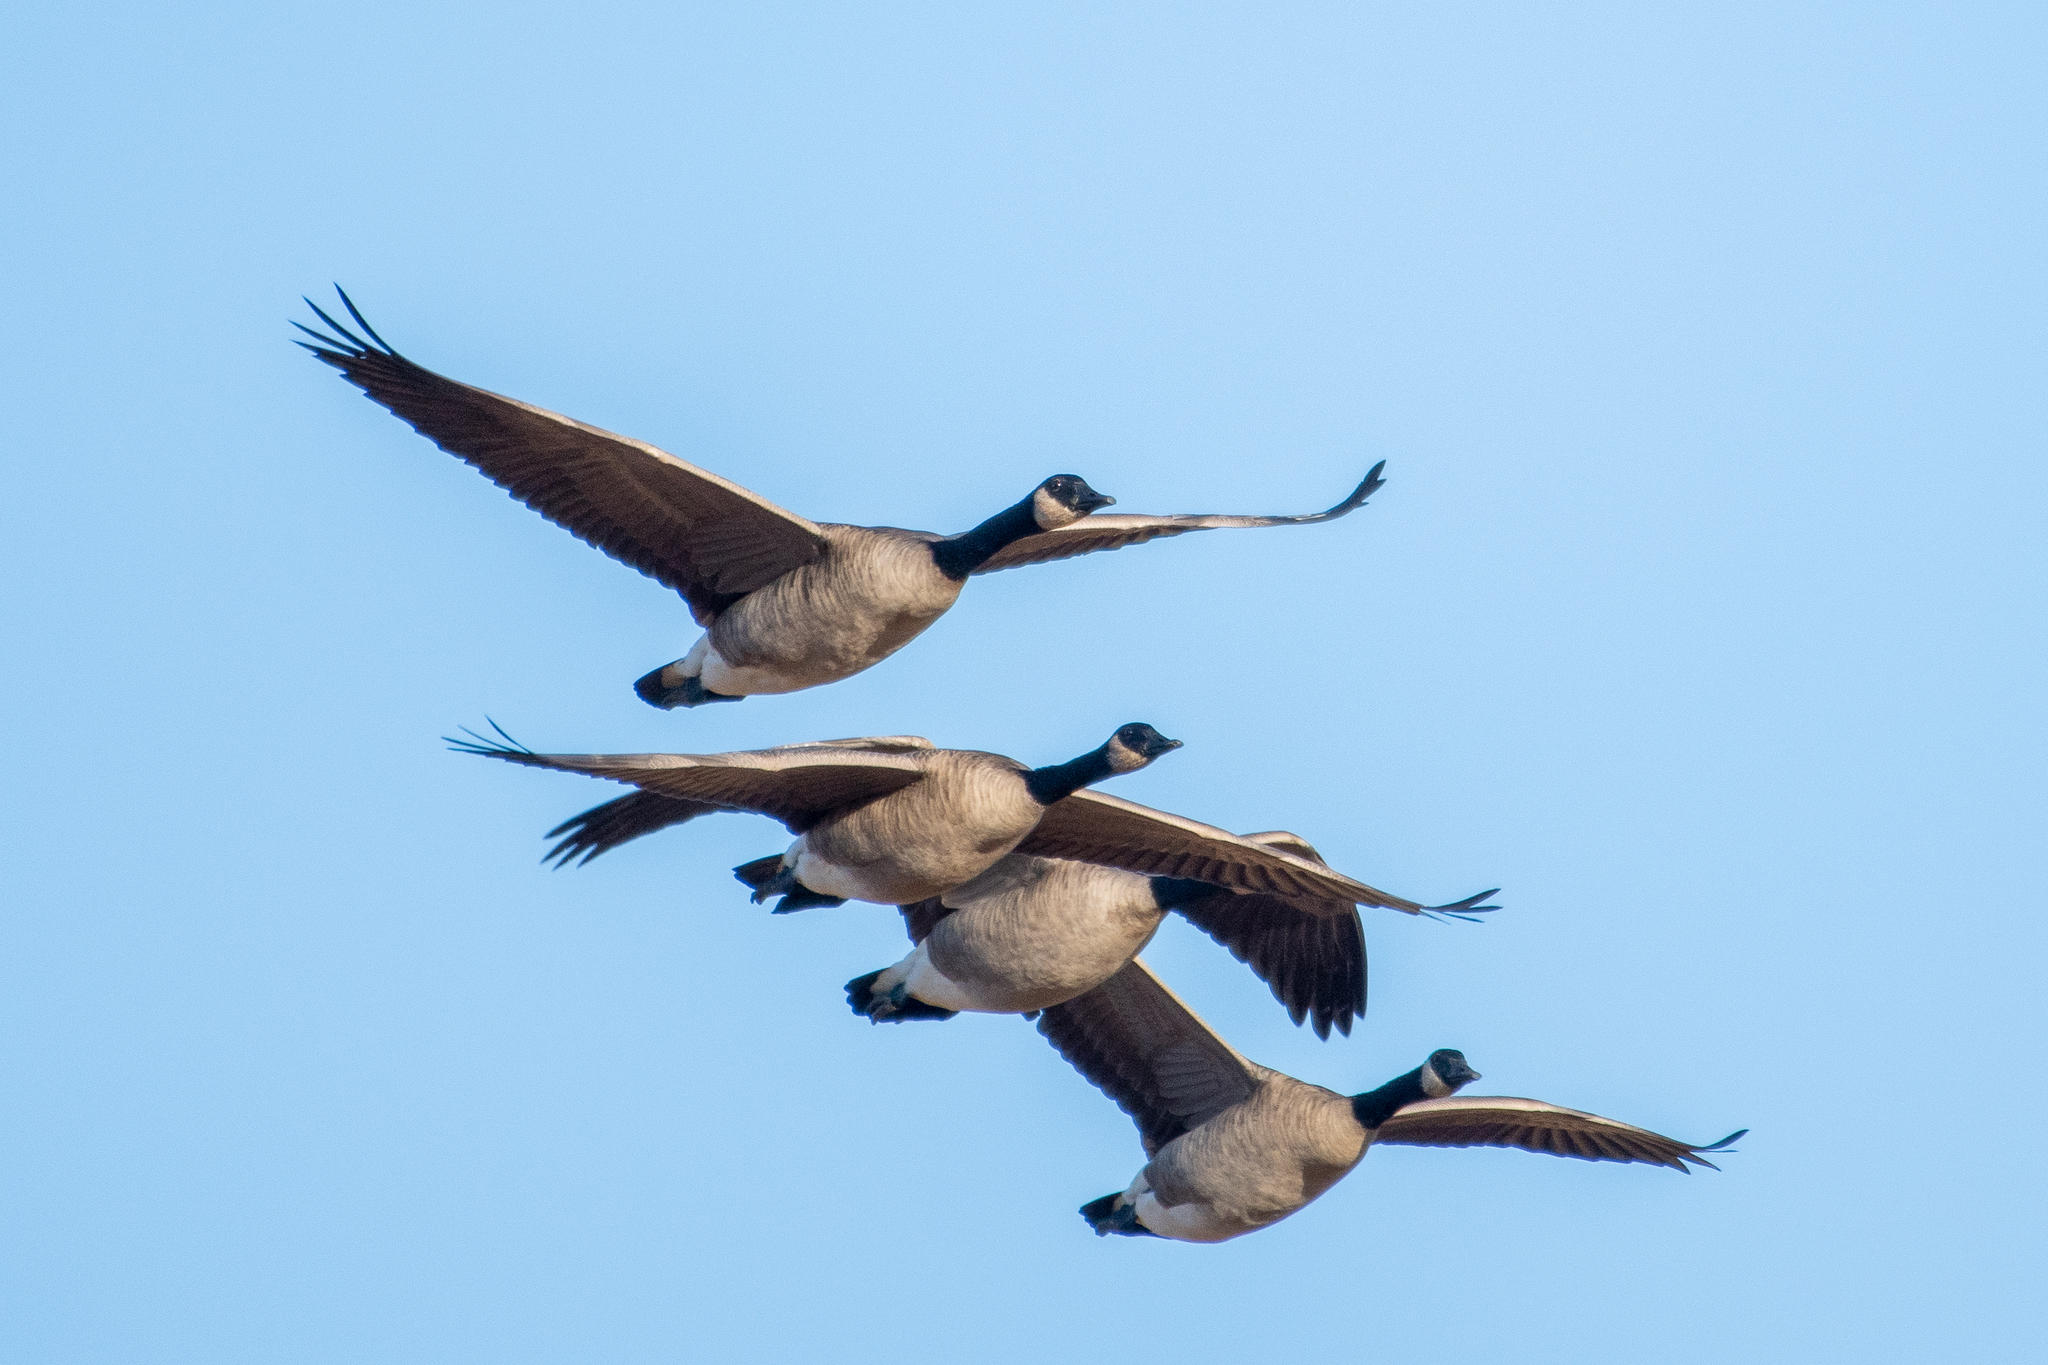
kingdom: Animalia
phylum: Chordata
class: Aves
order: Anseriformes
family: Anatidae
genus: Branta
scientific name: Branta canadensis
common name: Canada goose
